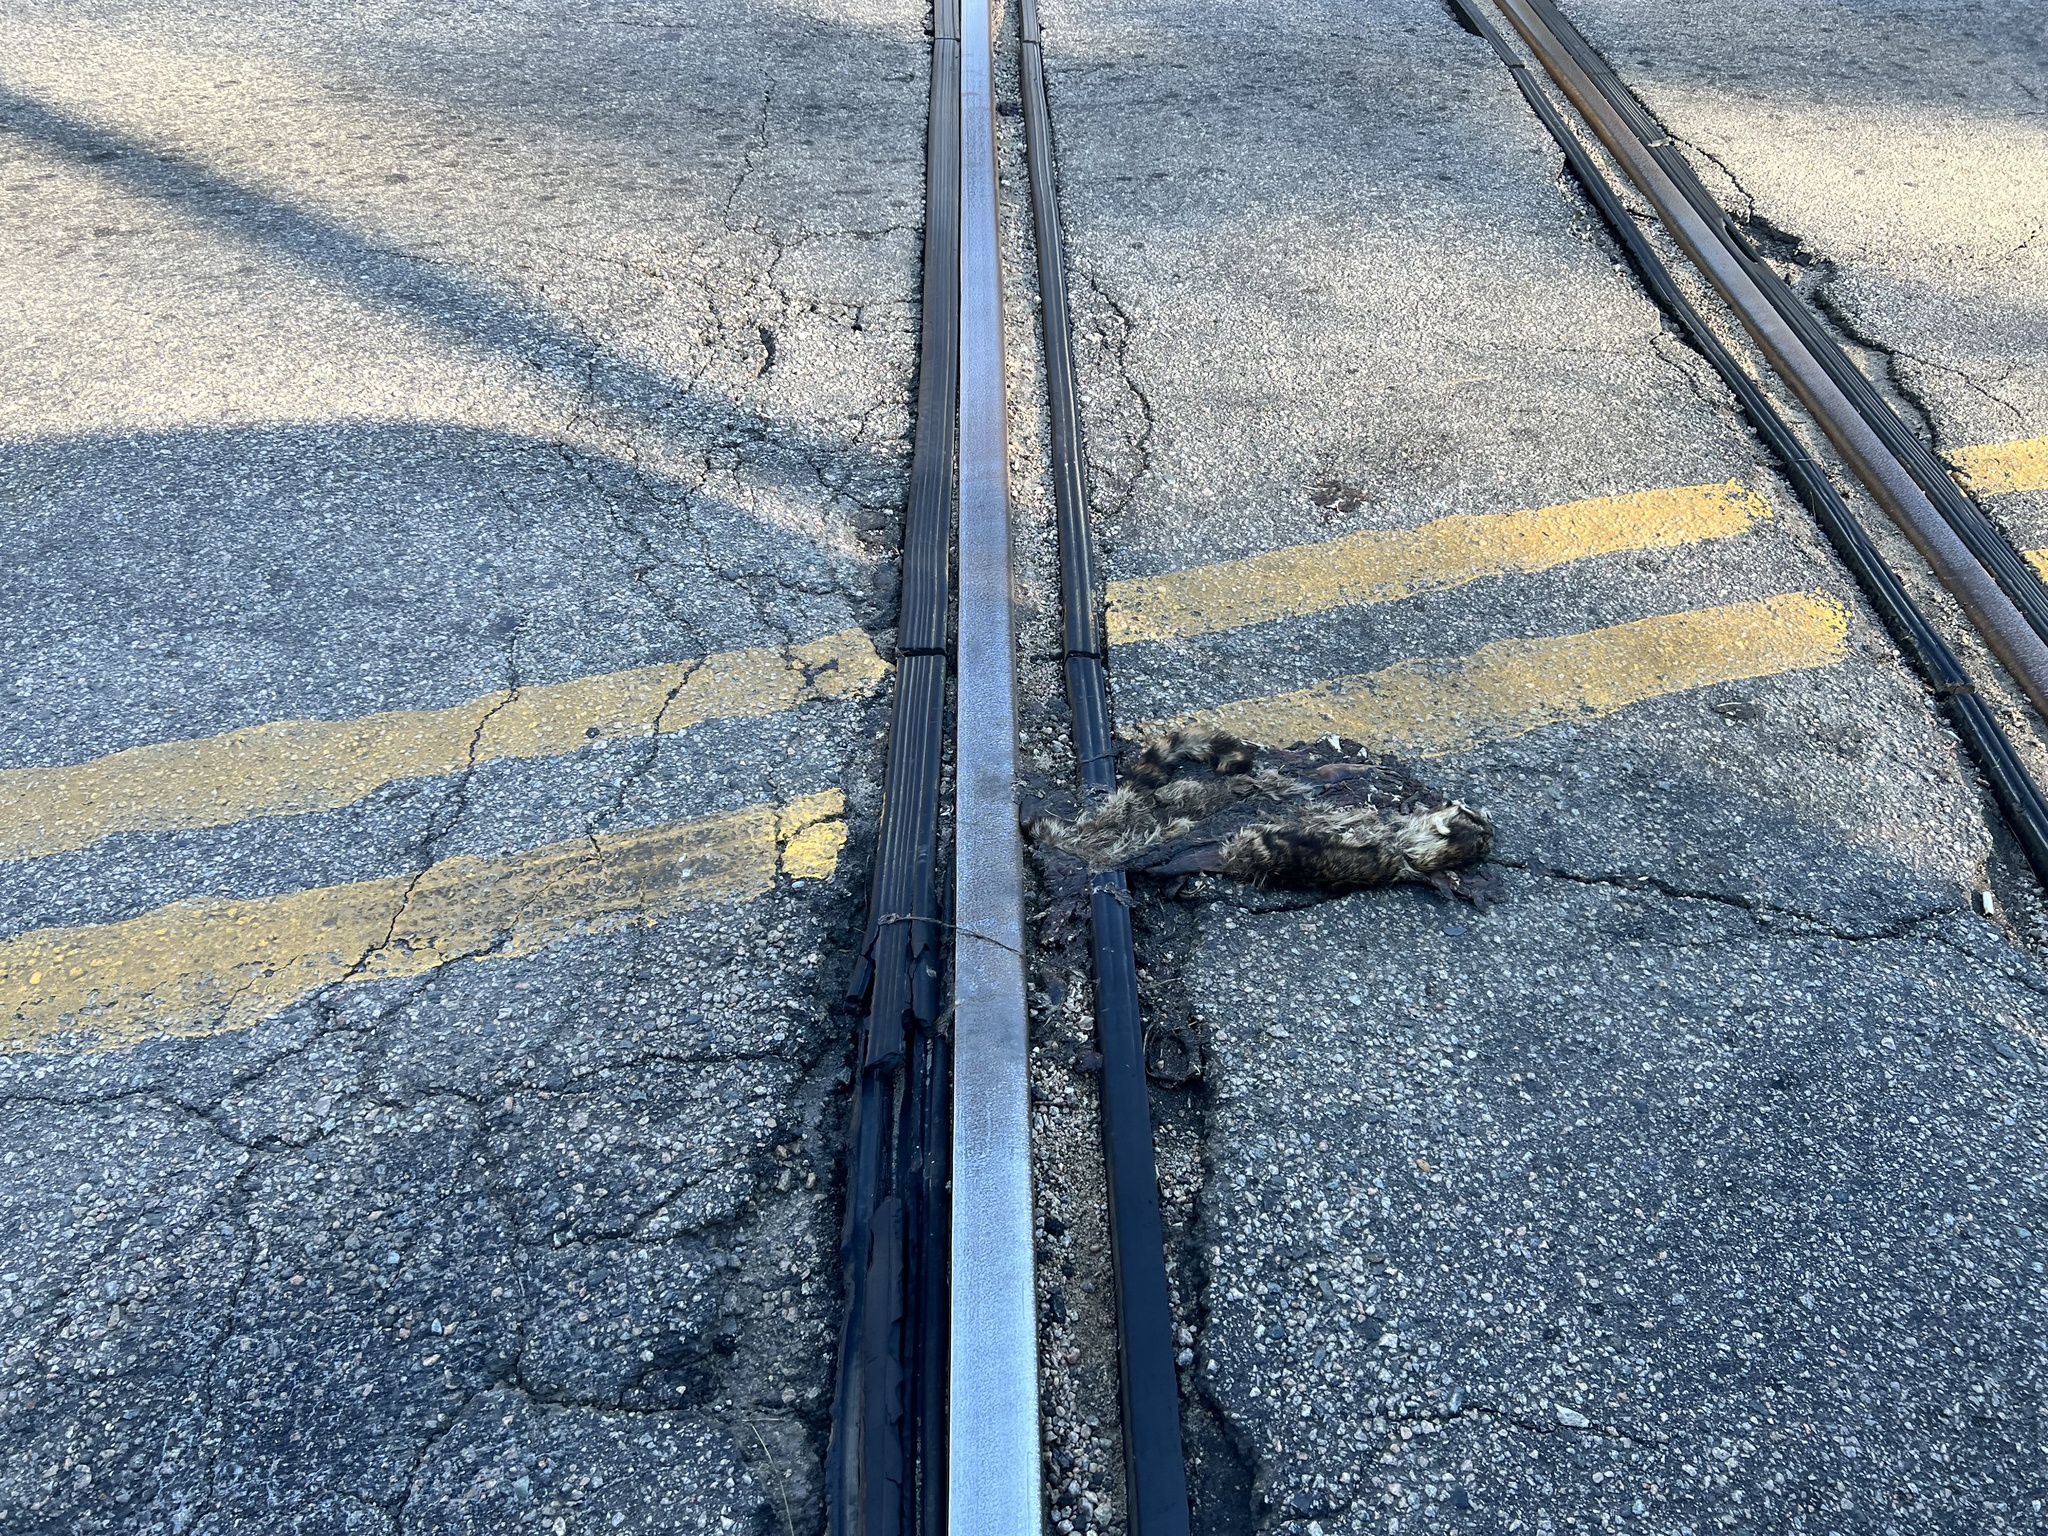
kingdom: Animalia
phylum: Chordata
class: Mammalia
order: Carnivora
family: Procyonidae
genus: Procyon
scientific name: Procyon lotor
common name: Raccoon
